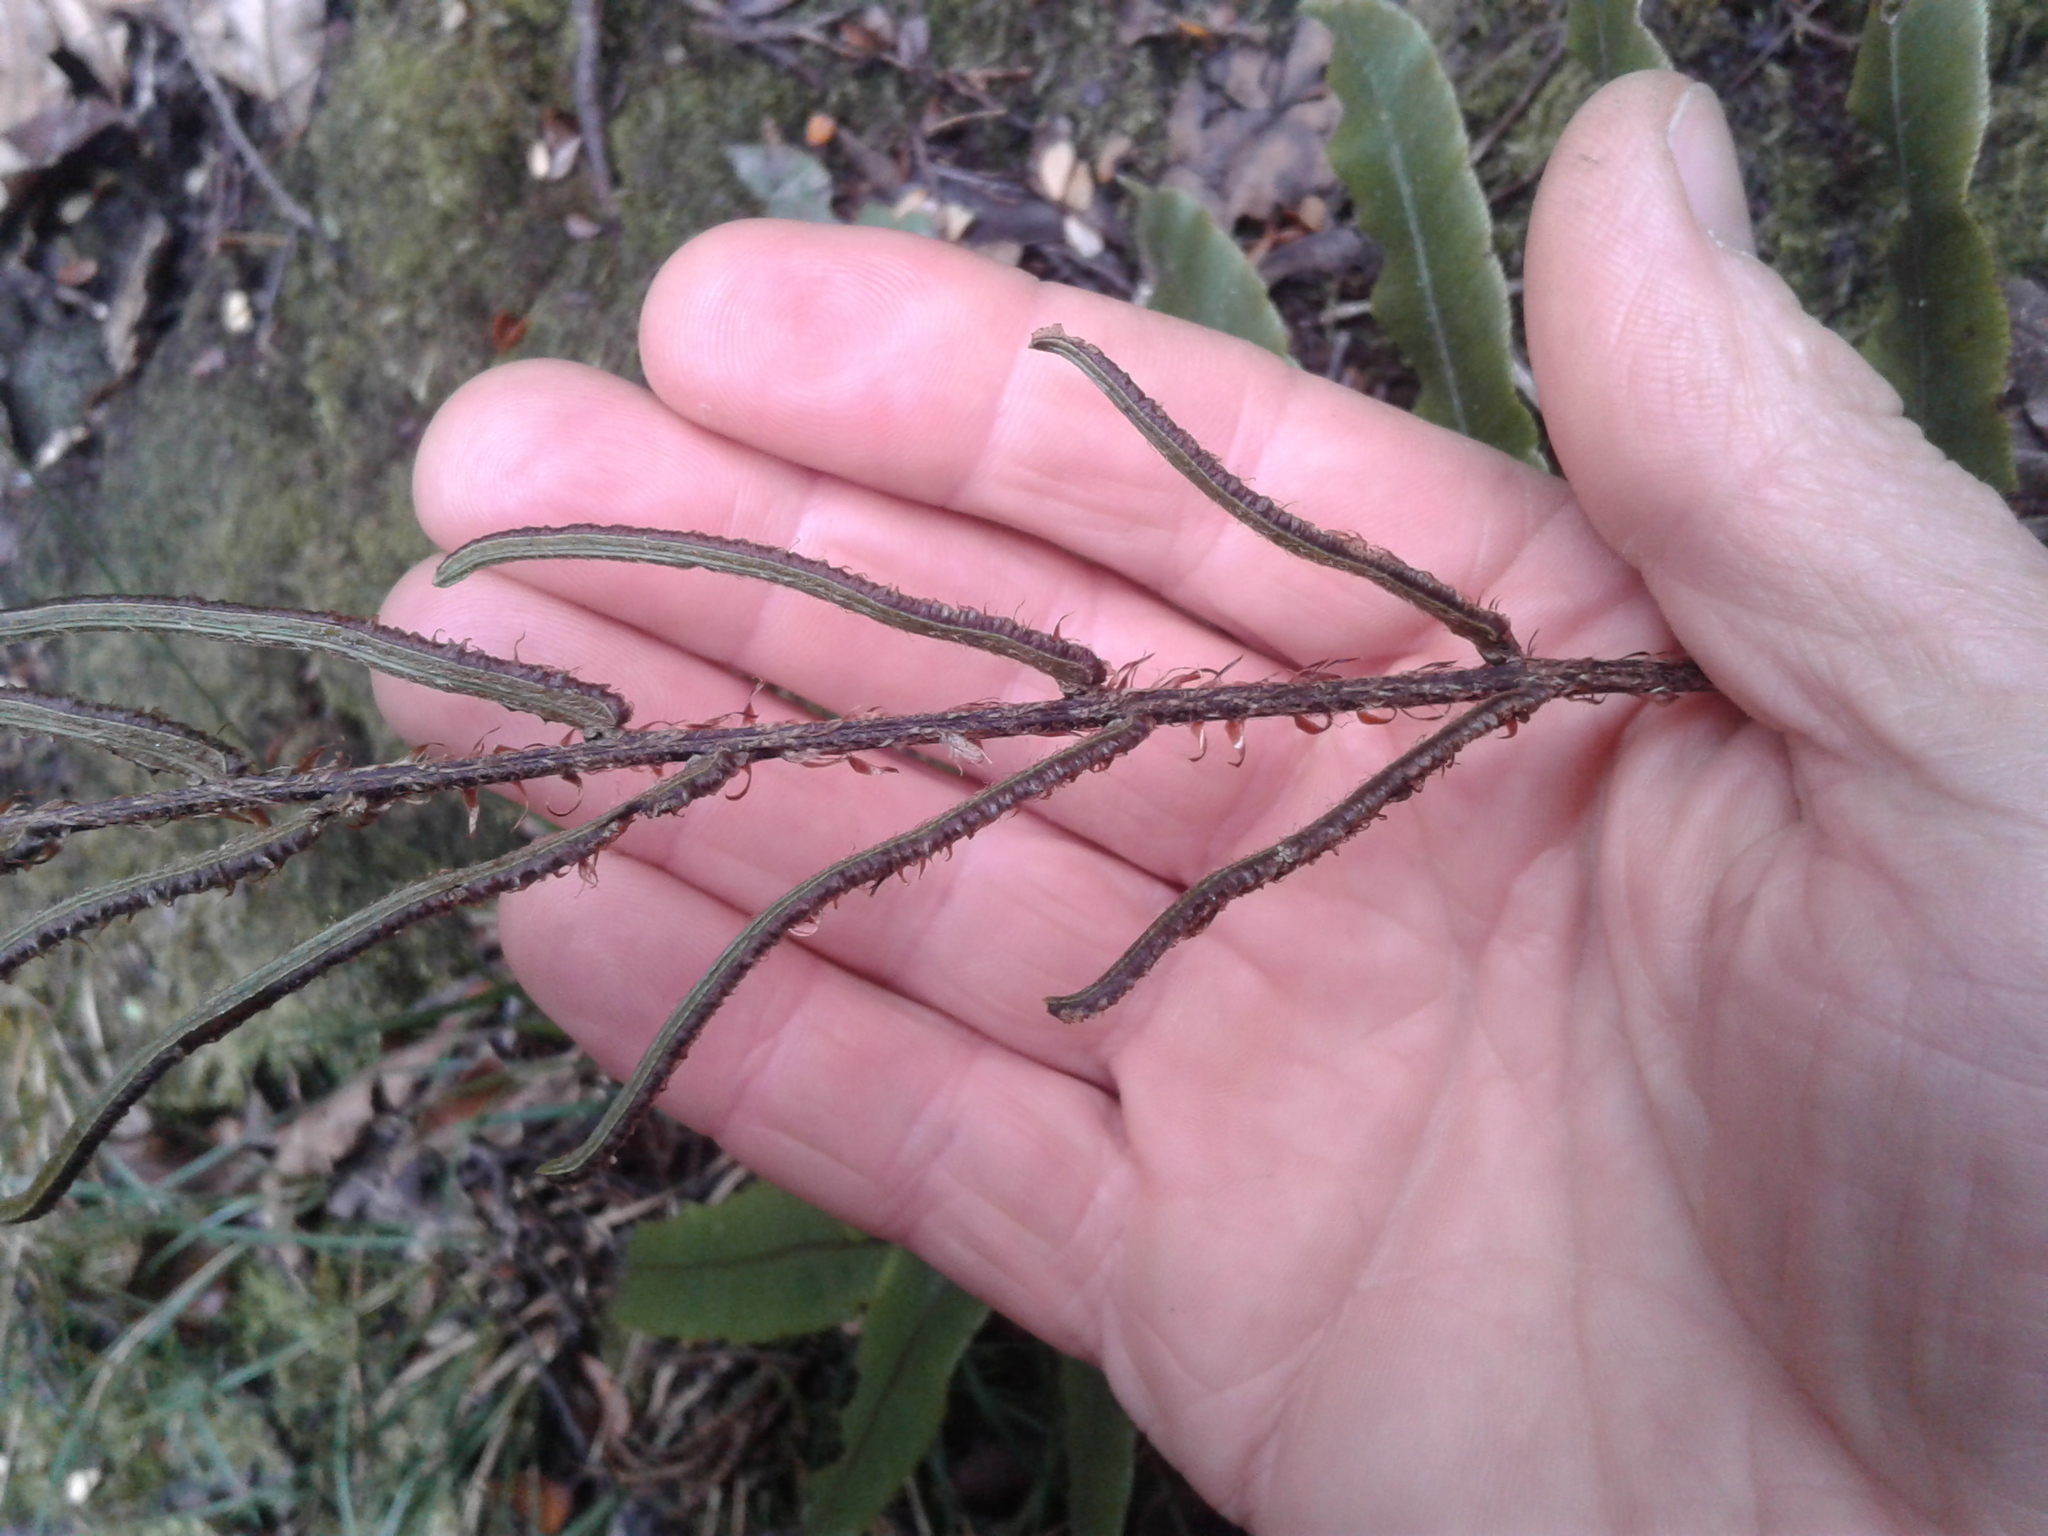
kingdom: Plantae
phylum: Tracheophyta
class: Polypodiopsida
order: Polypodiales
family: Blechnaceae
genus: Parablechnum
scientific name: Parablechnum procerum
